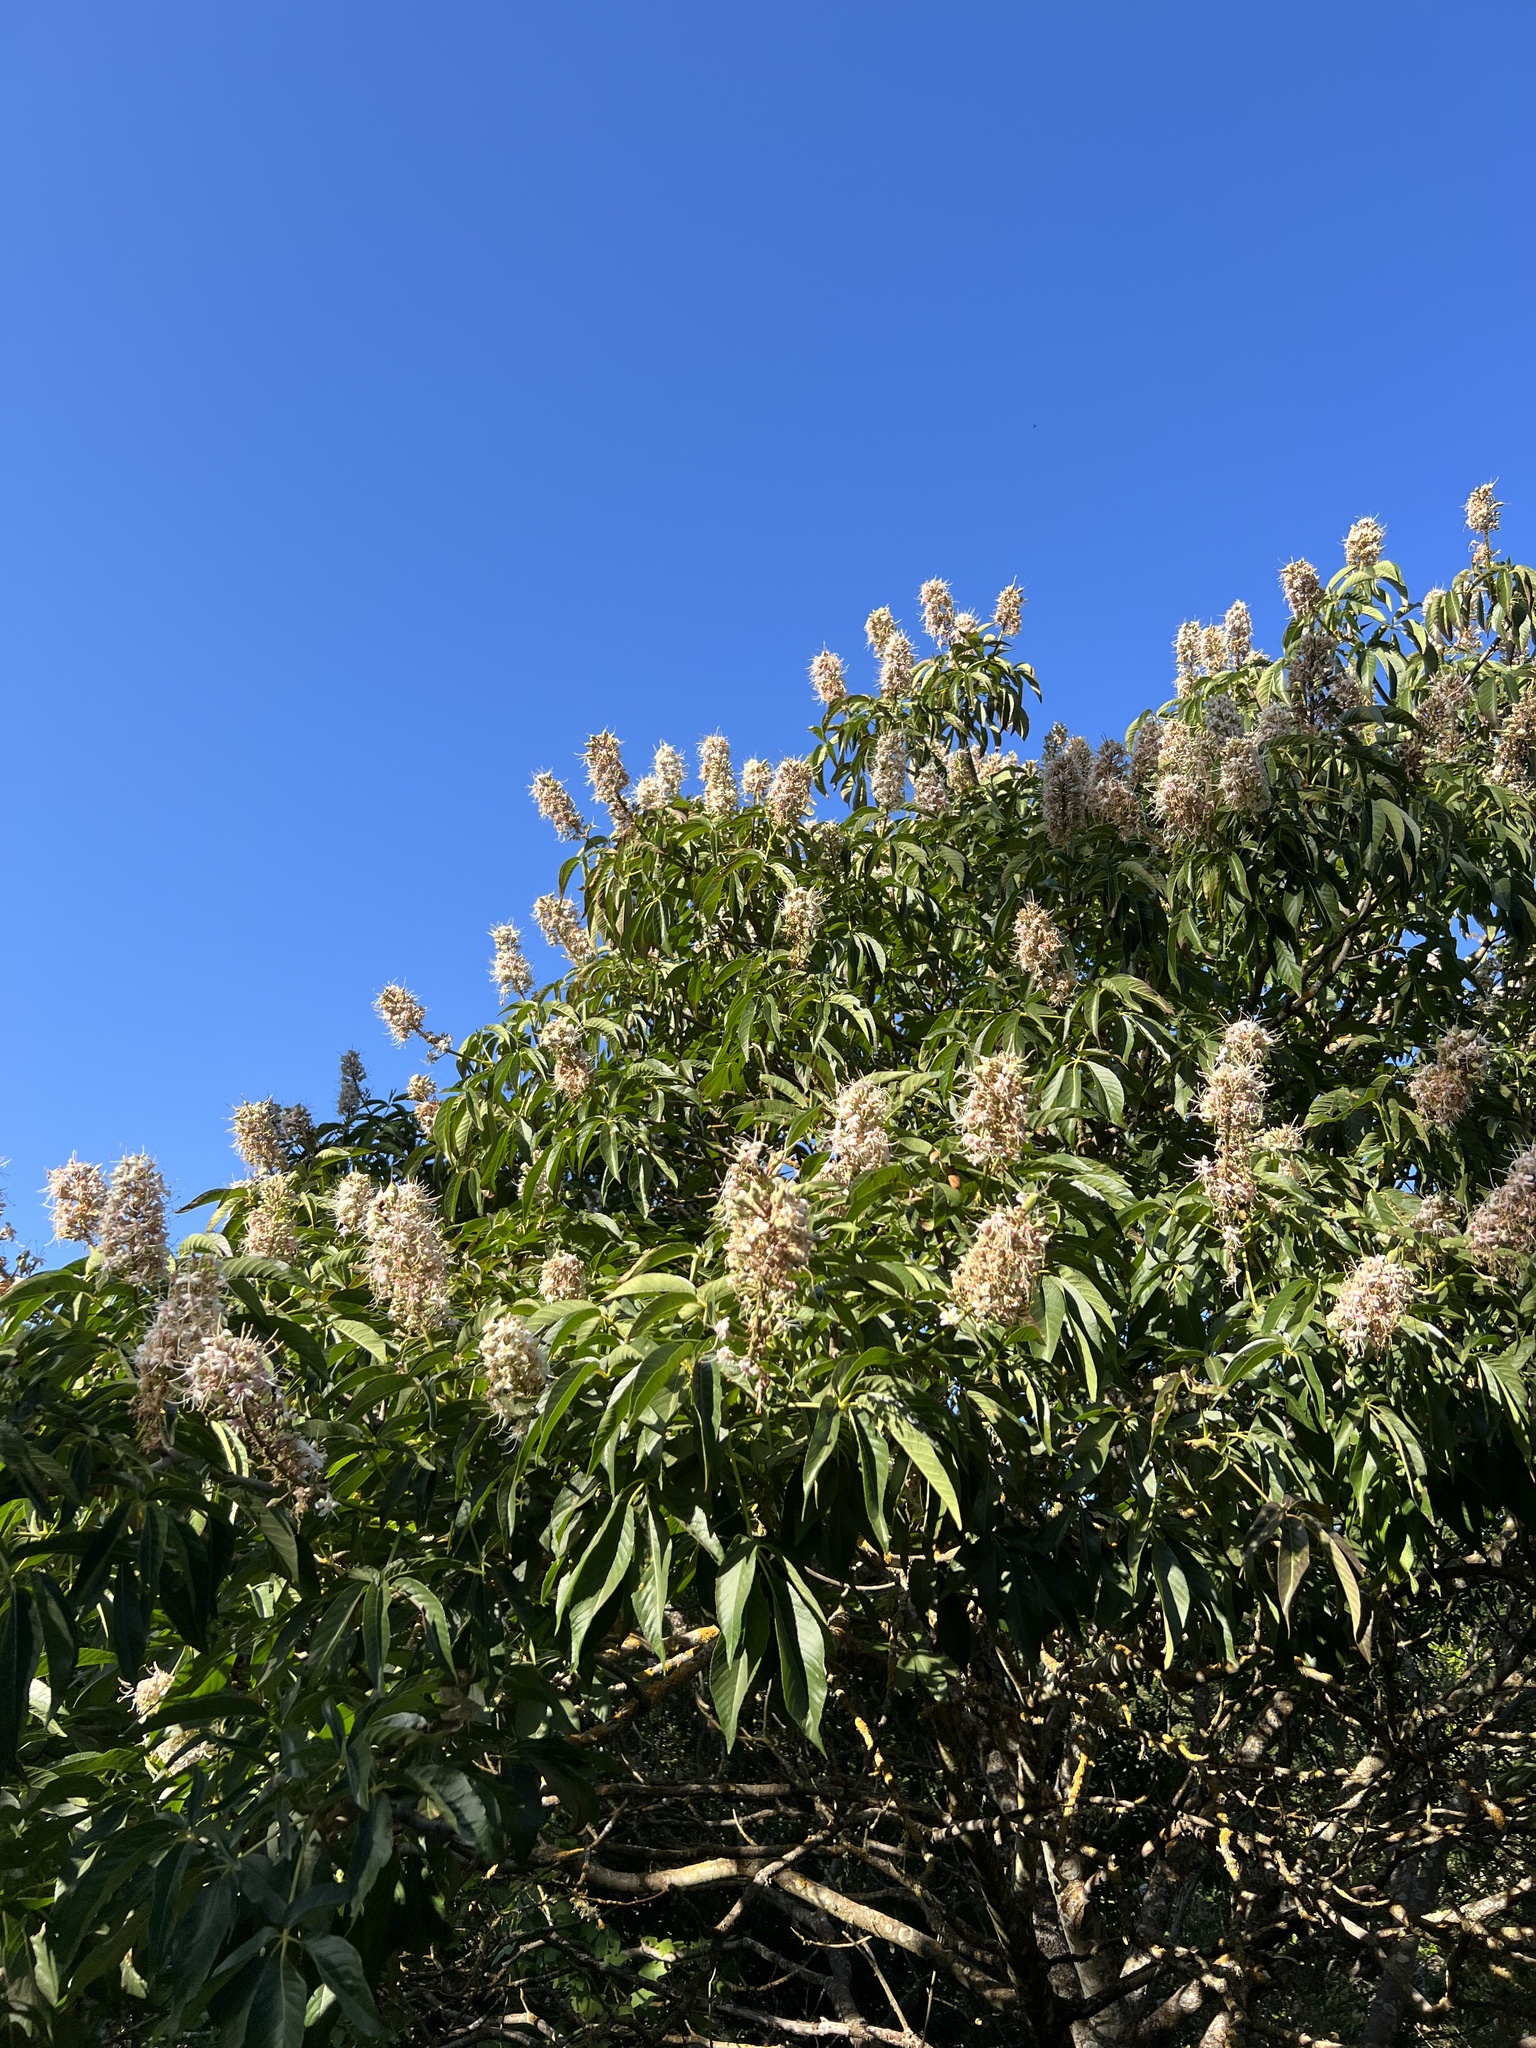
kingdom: Plantae
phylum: Tracheophyta
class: Magnoliopsida
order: Sapindales
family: Sapindaceae
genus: Aesculus
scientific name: Aesculus californica
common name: California buckeye
